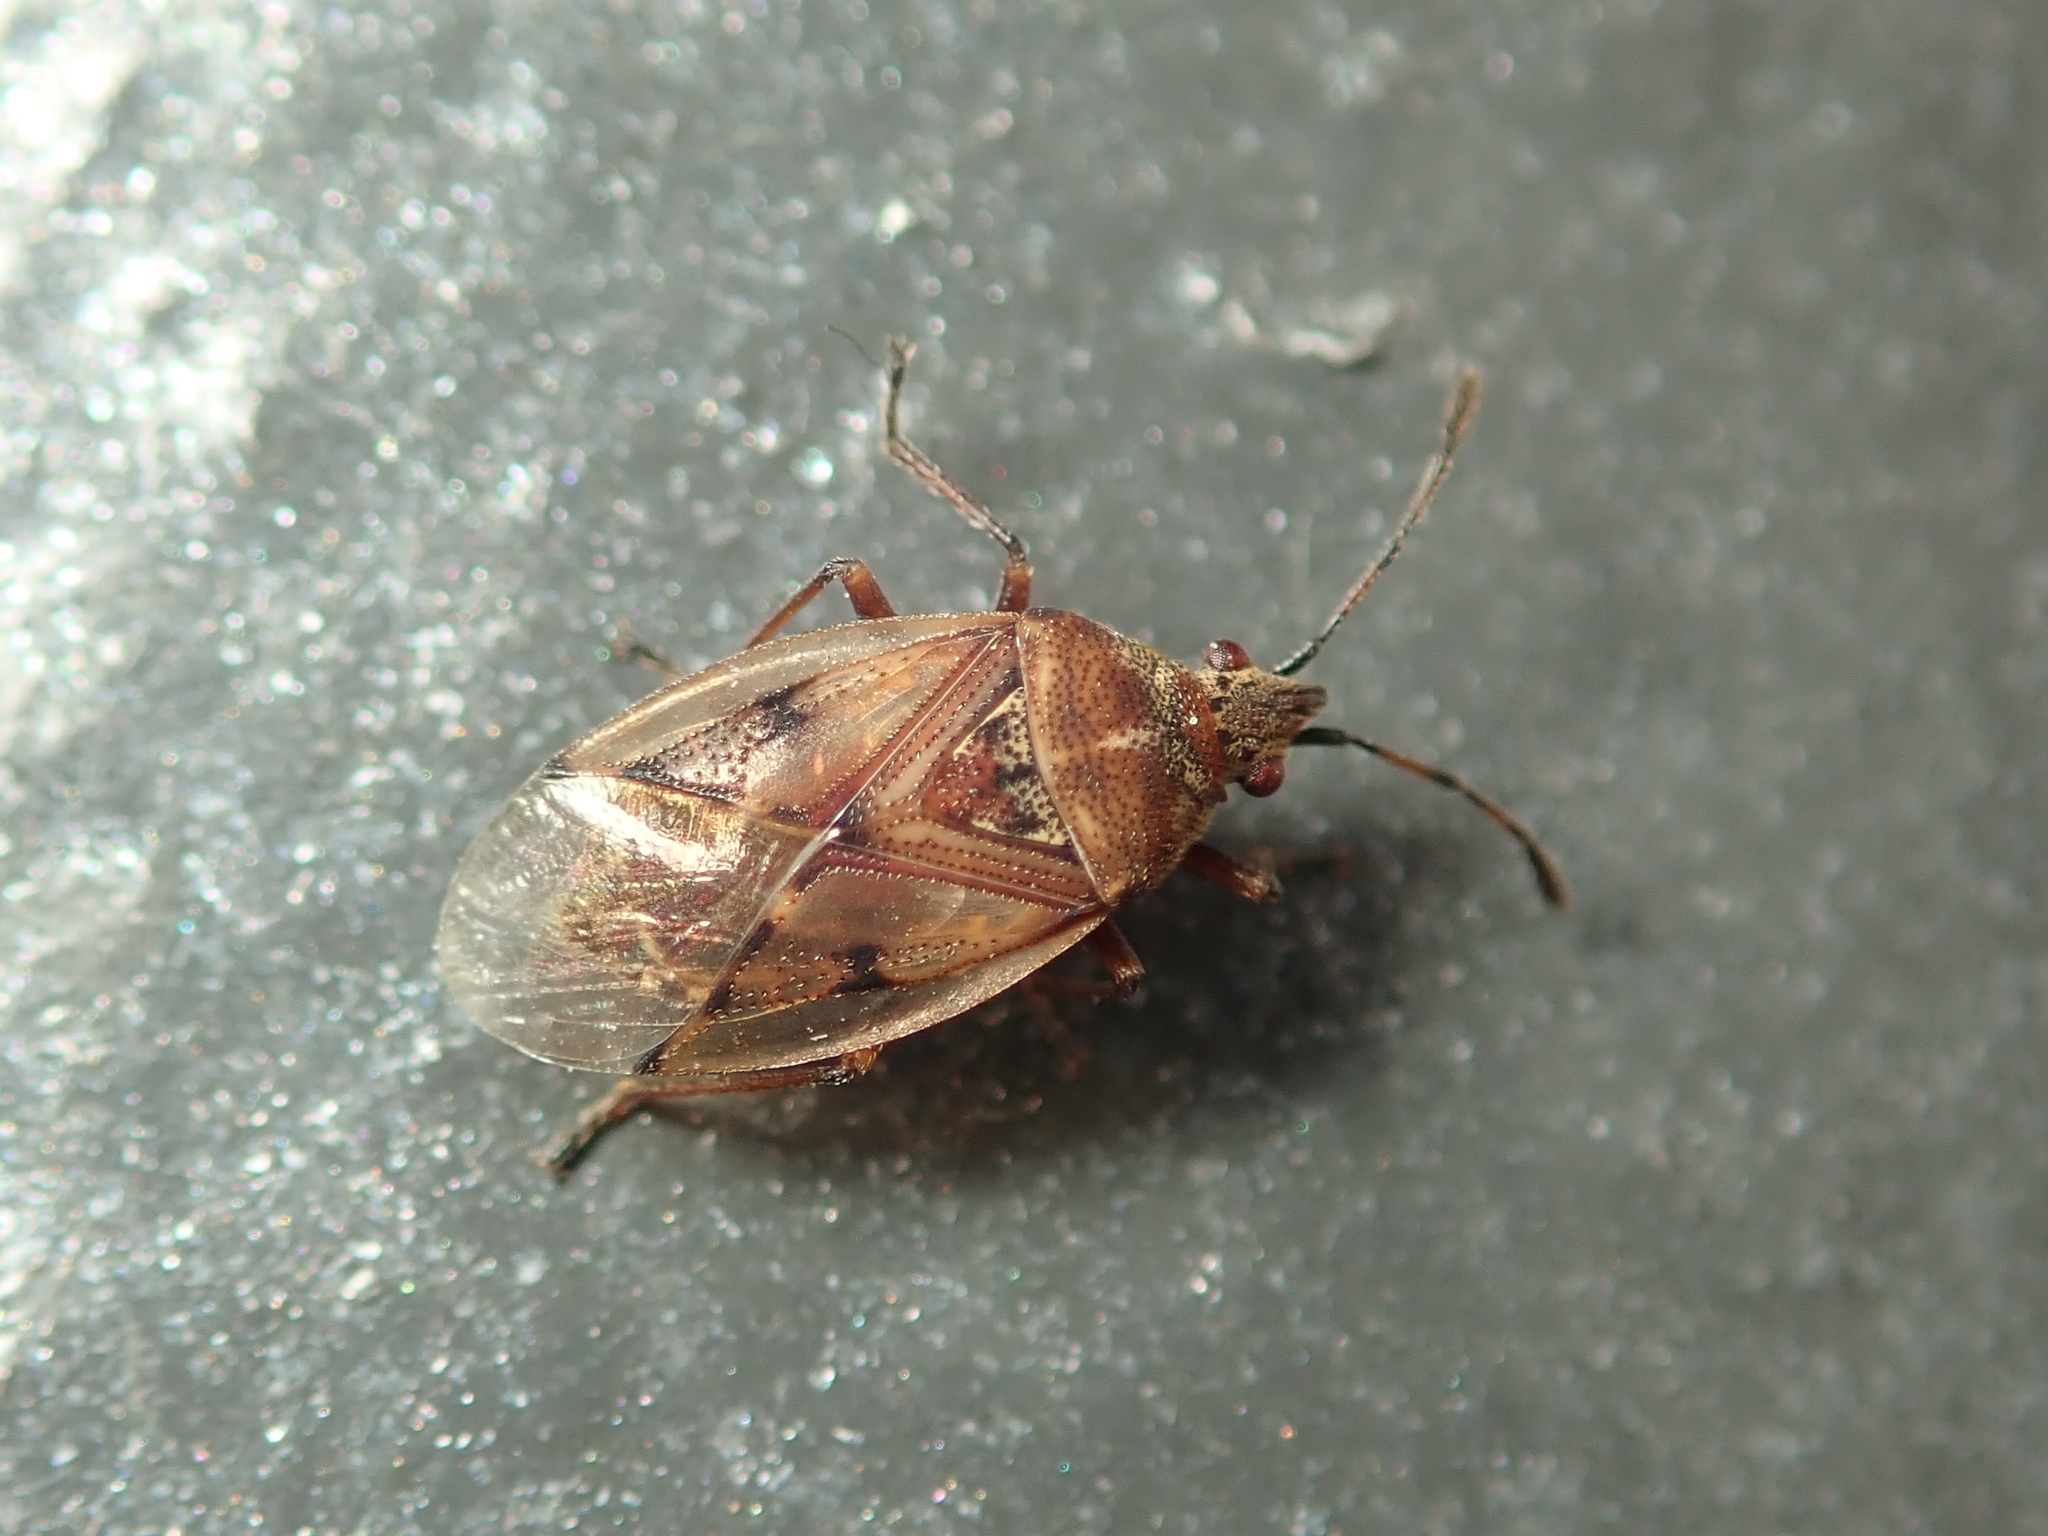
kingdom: Animalia
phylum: Arthropoda
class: Insecta
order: Hemiptera
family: Lygaeidae
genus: Kleidocerys
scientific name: Kleidocerys resedae
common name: Birch catkin bug
